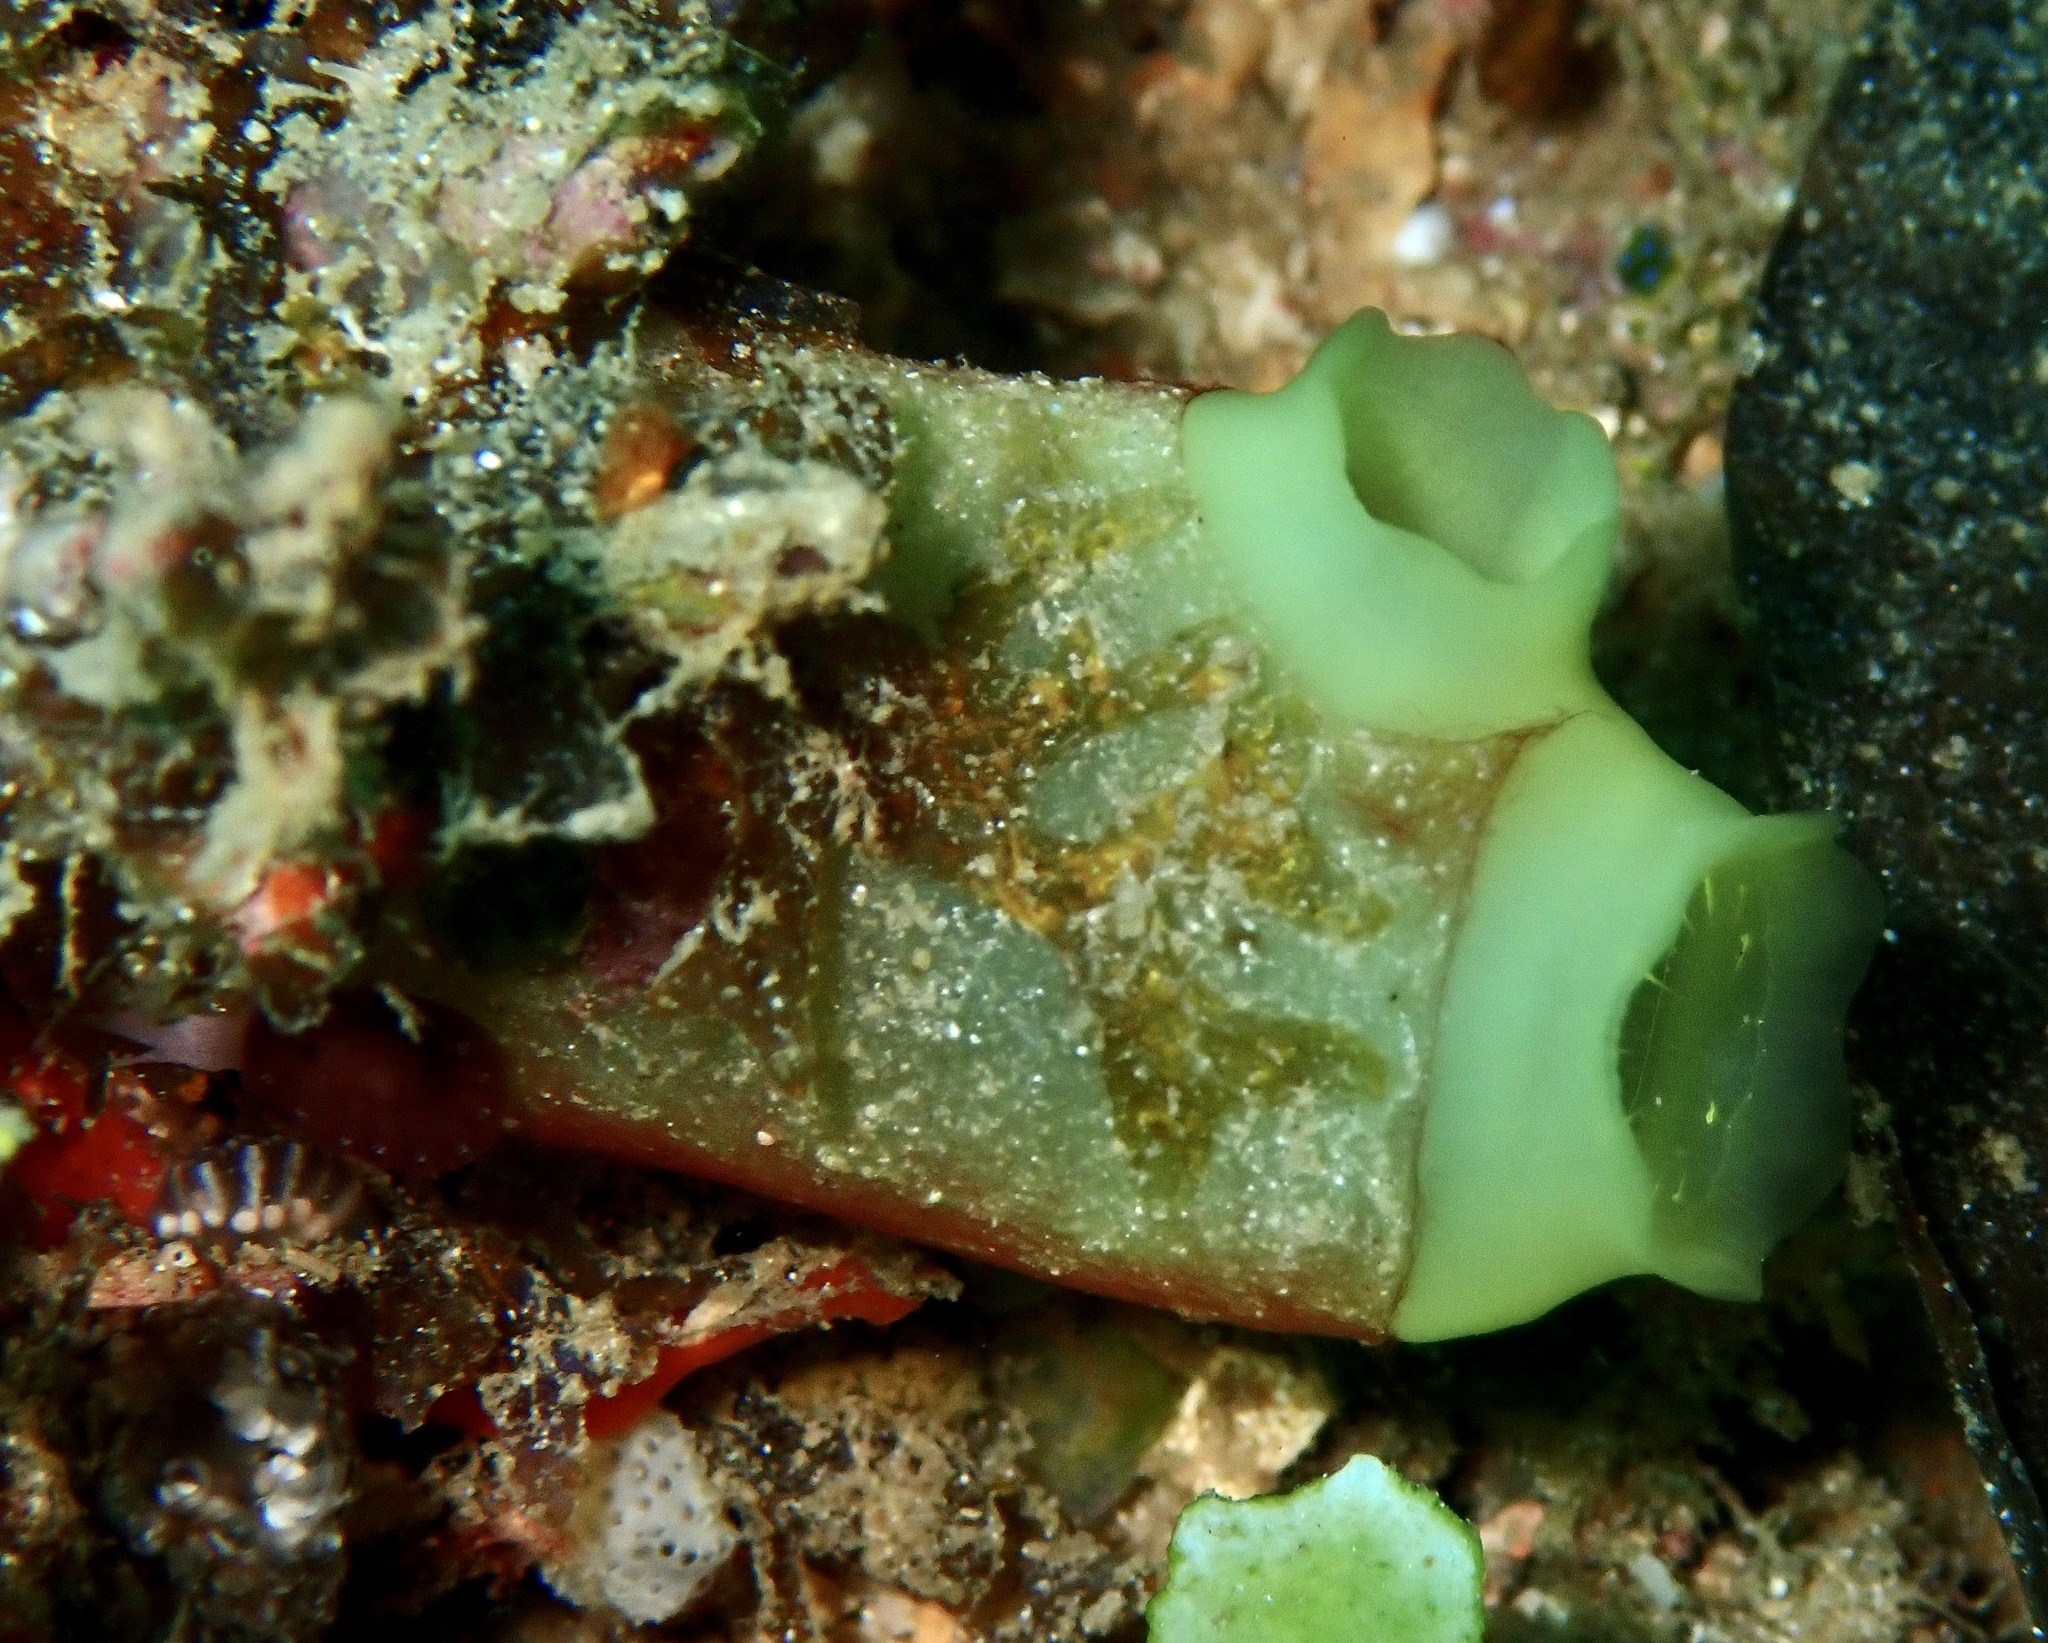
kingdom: Animalia
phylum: Chordata
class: Ascidiacea
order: Aplousobranchia
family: Diazonidae
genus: Rhopalaea
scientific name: Rhopalaea crassa
